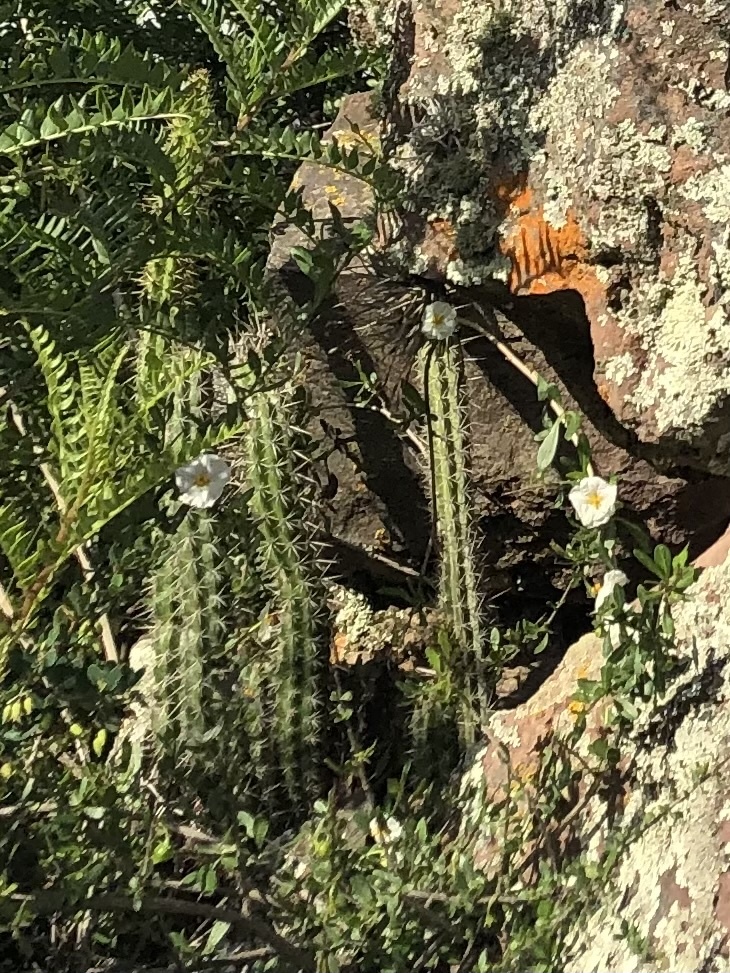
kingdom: Plantae
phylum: Tracheophyta
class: Magnoliopsida
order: Caryophyllales
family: Cactaceae
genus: Corryocactus
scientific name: Corryocactus erectus
